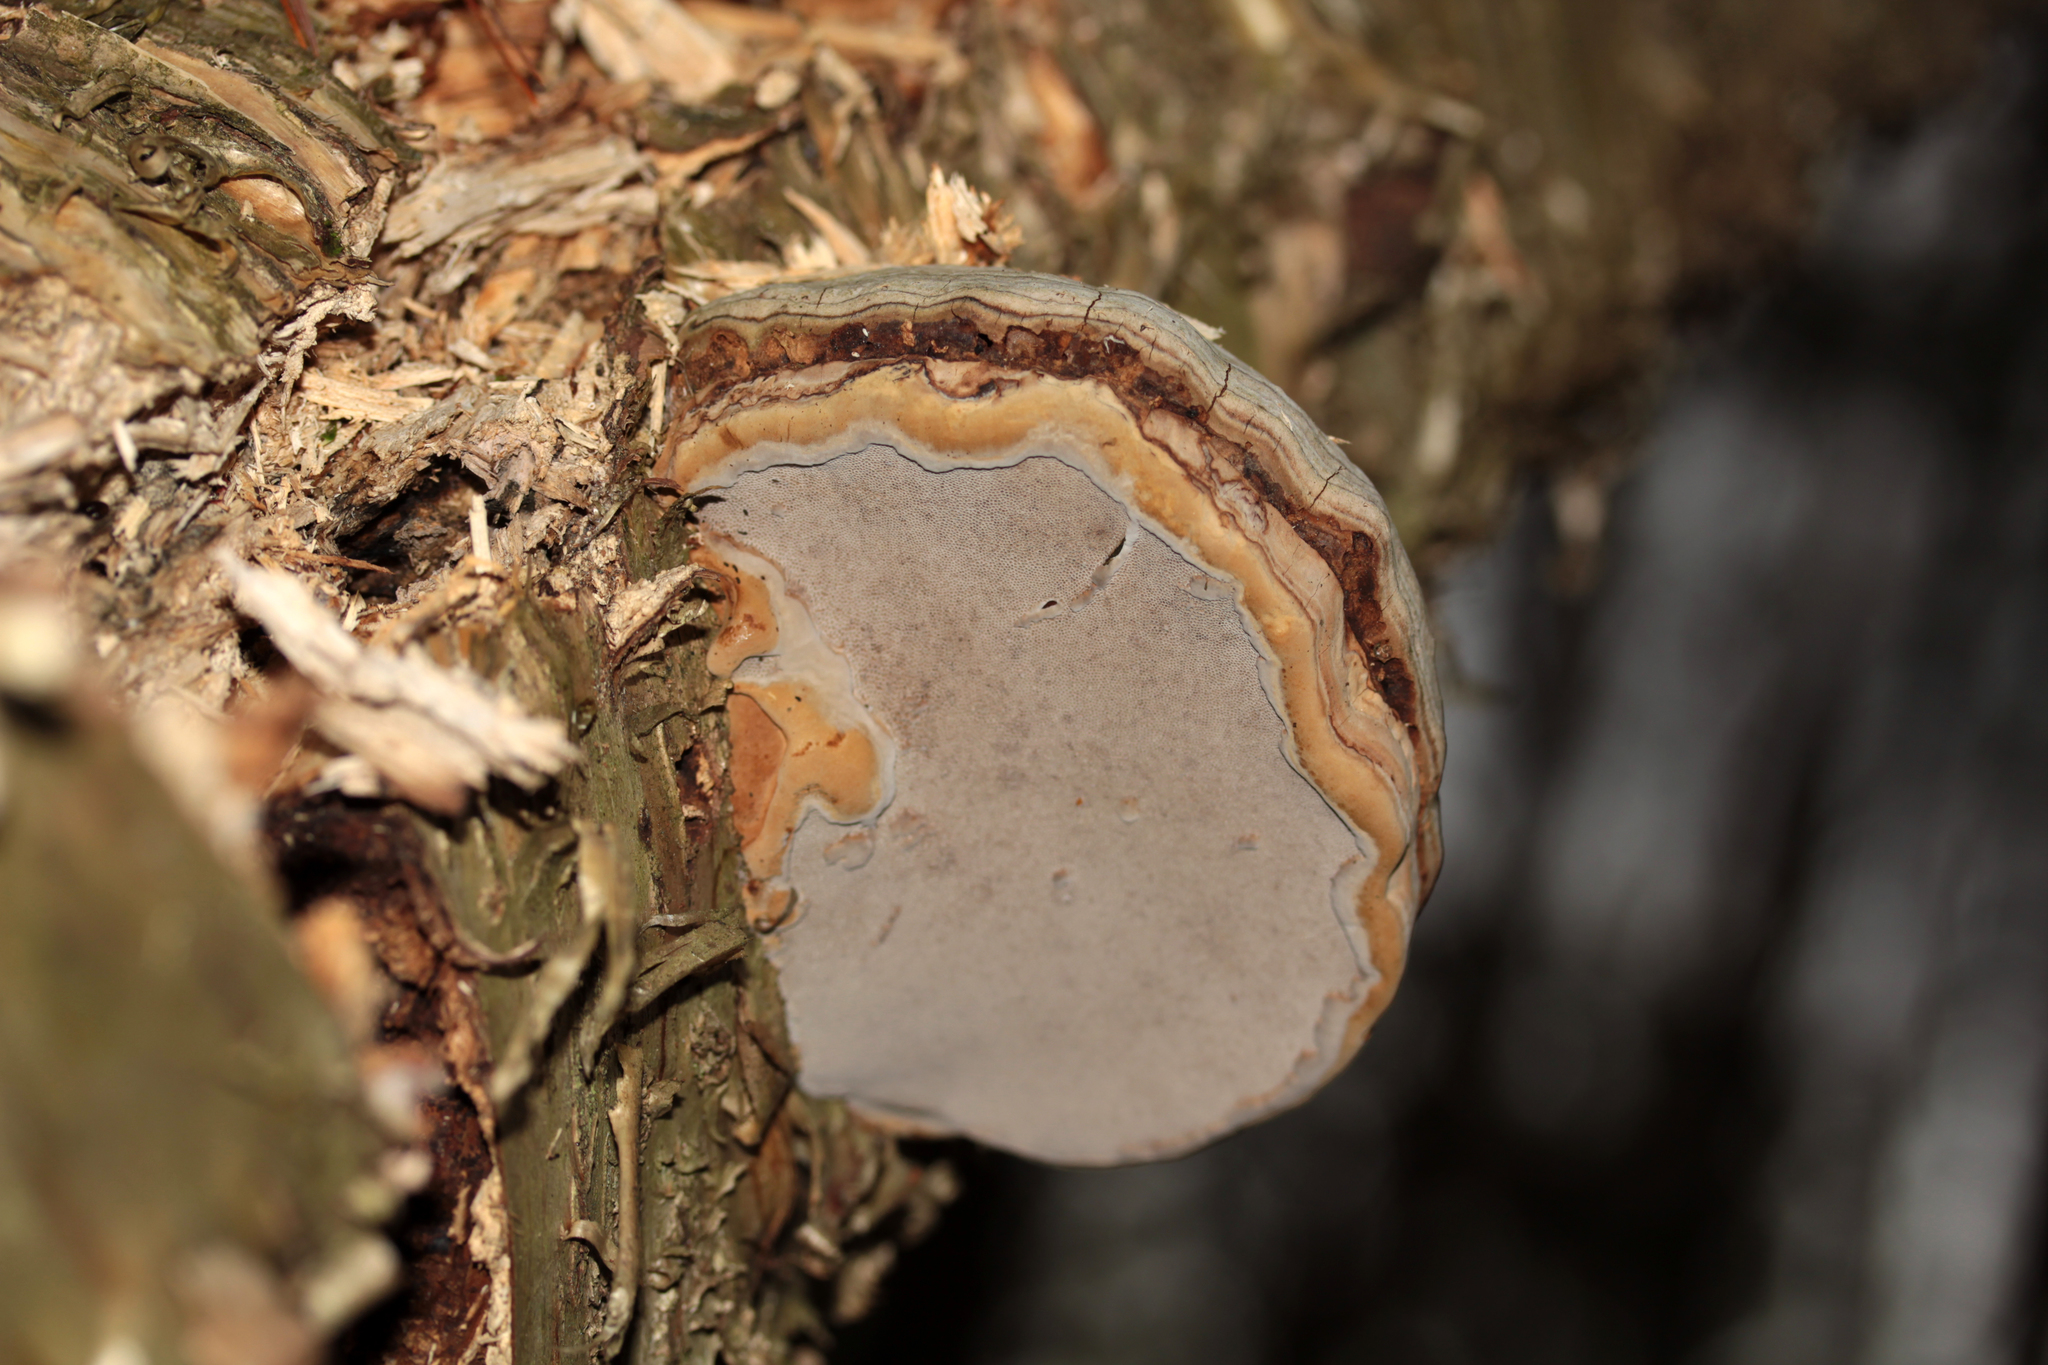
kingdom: Fungi
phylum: Basidiomycota
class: Agaricomycetes
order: Polyporales
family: Polyporaceae
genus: Fomes
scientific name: Fomes fomentarius
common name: Hoof fungus
